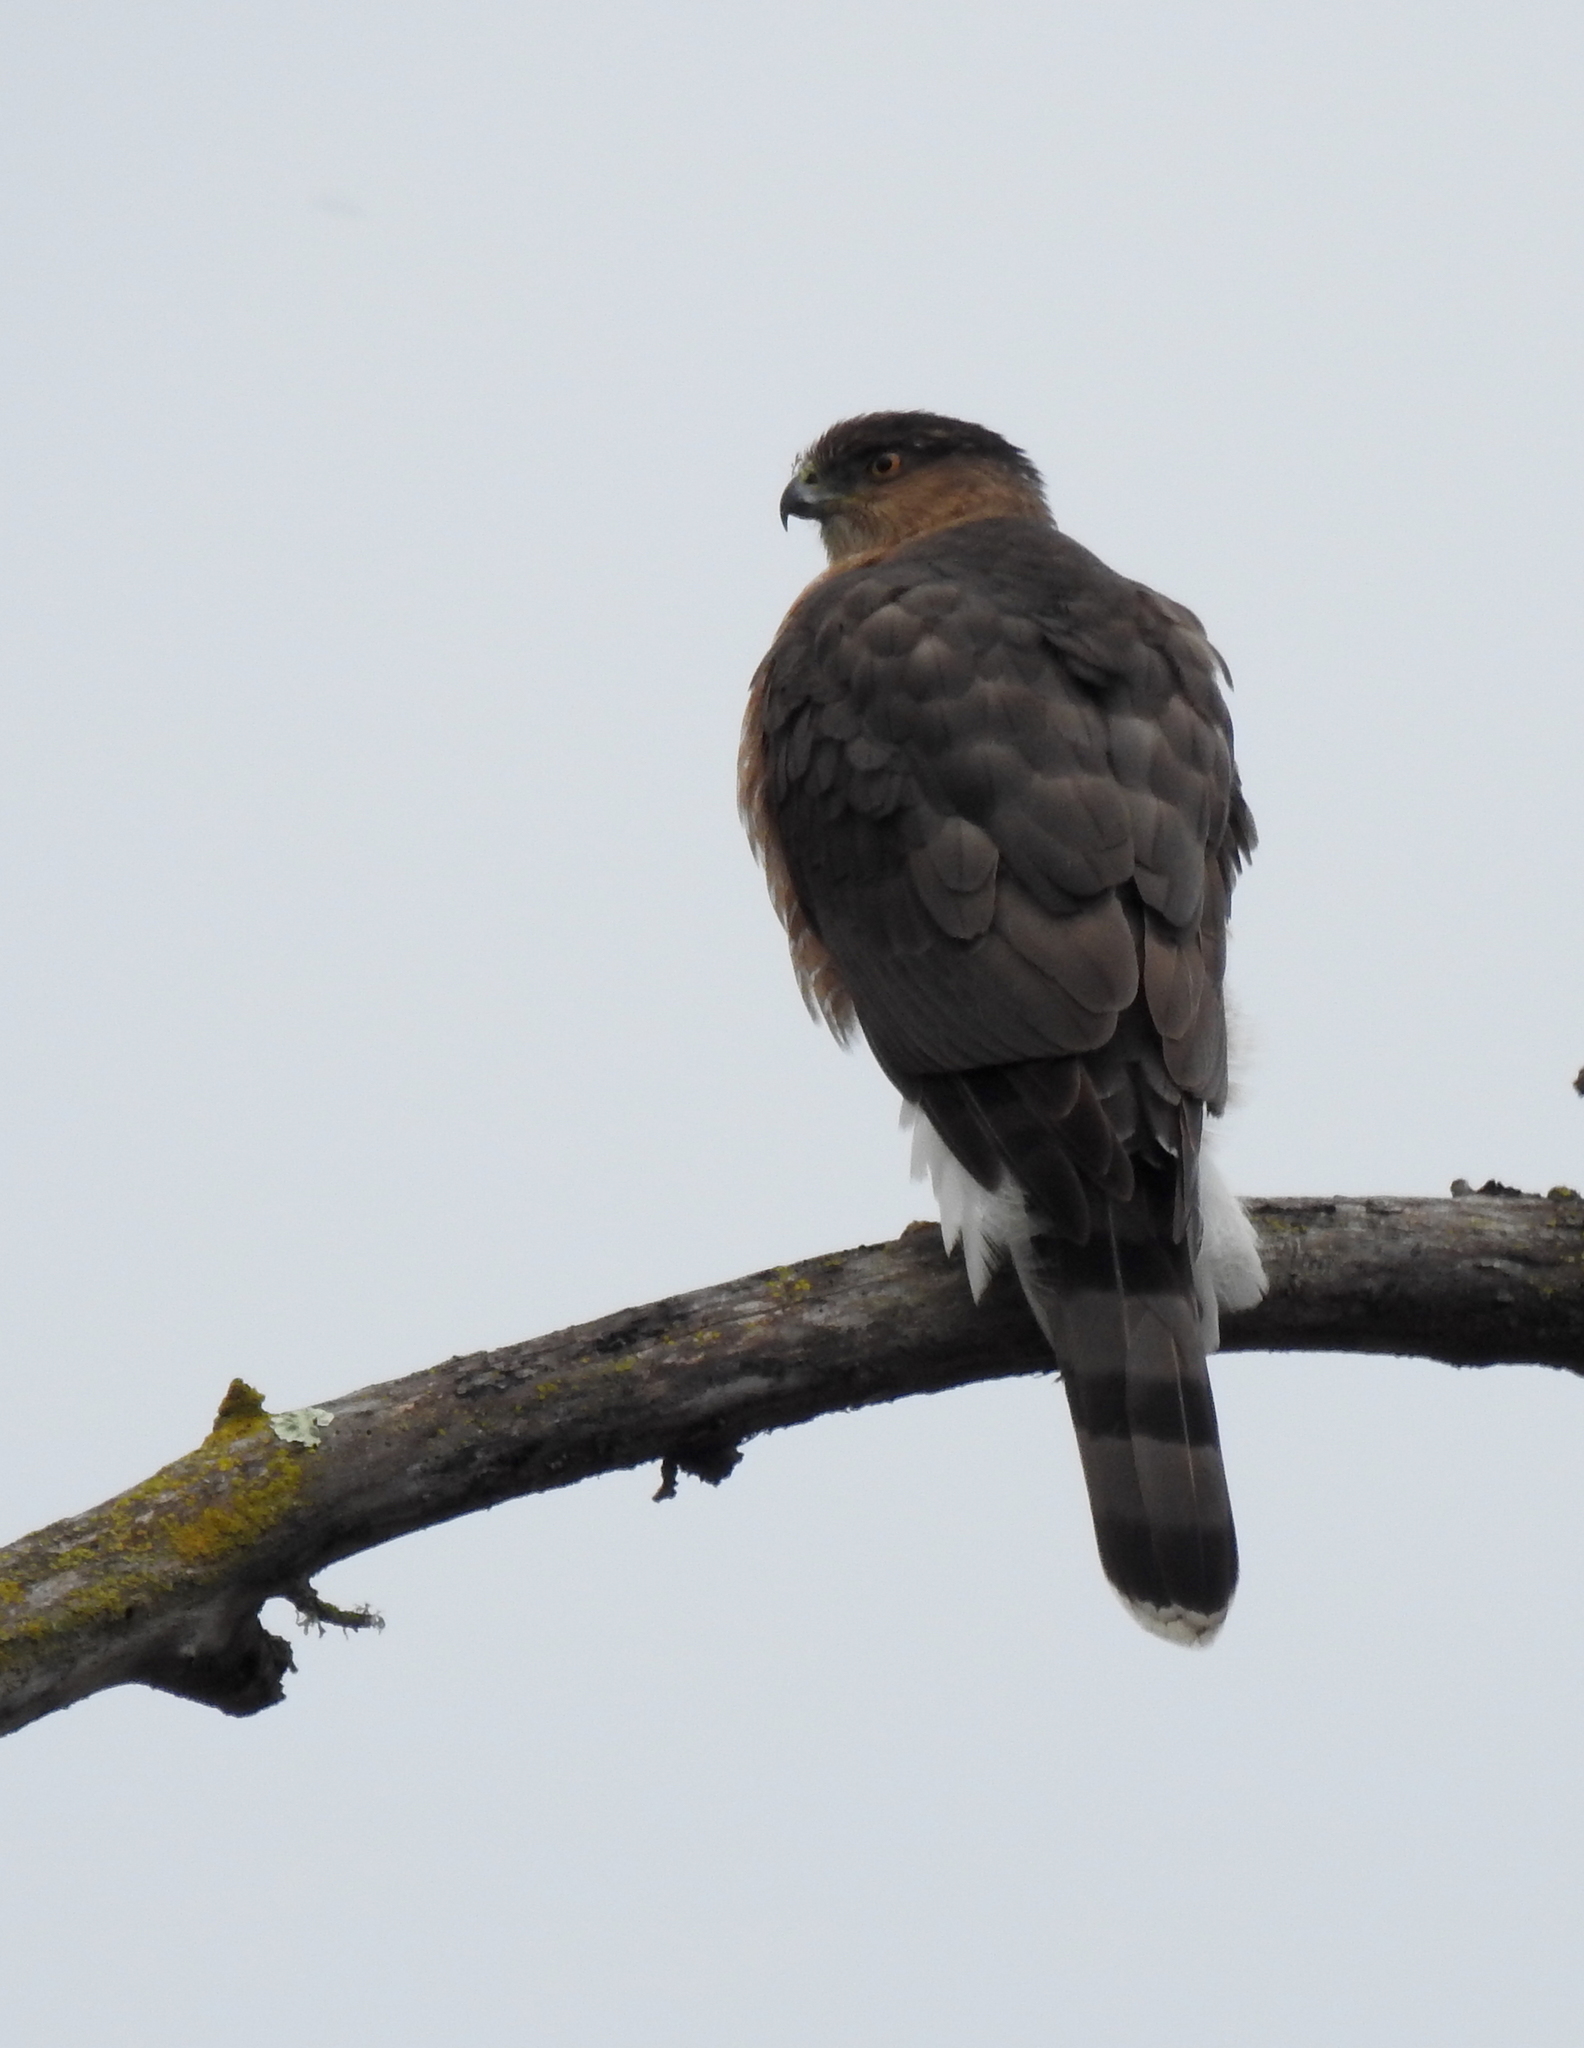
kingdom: Animalia
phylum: Chordata
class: Aves
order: Accipitriformes
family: Accipitridae
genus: Accipiter
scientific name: Accipiter cooperii
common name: Cooper's hawk
